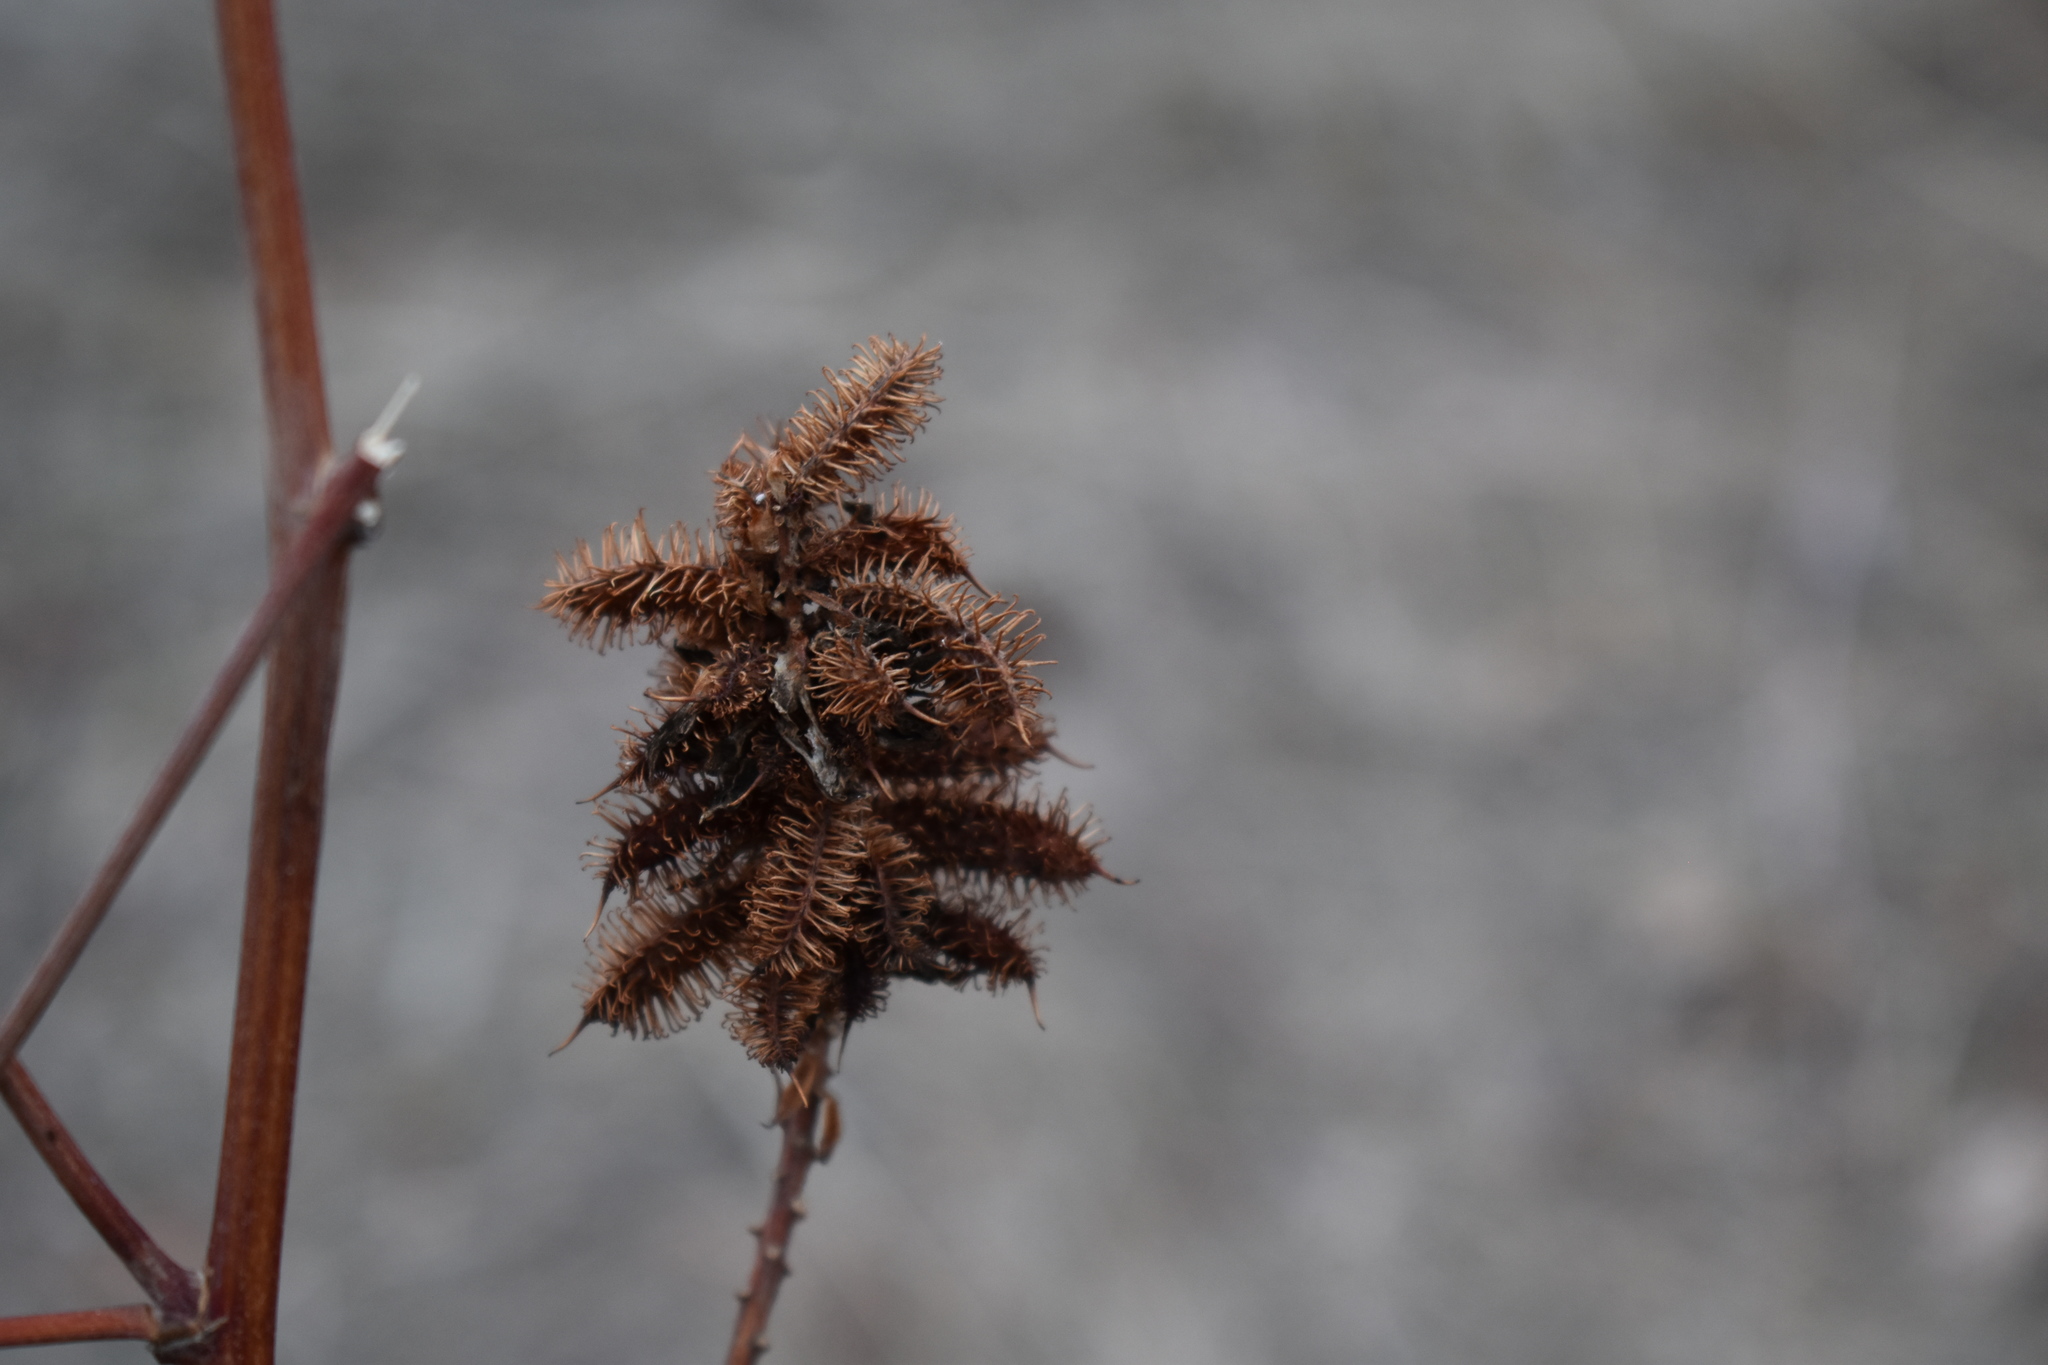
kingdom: Plantae
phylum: Tracheophyta
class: Magnoliopsida
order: Fabales
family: Fabaceae
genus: Glycyrrhiza
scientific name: Glycyrrhiza lepidota
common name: American liquorice
